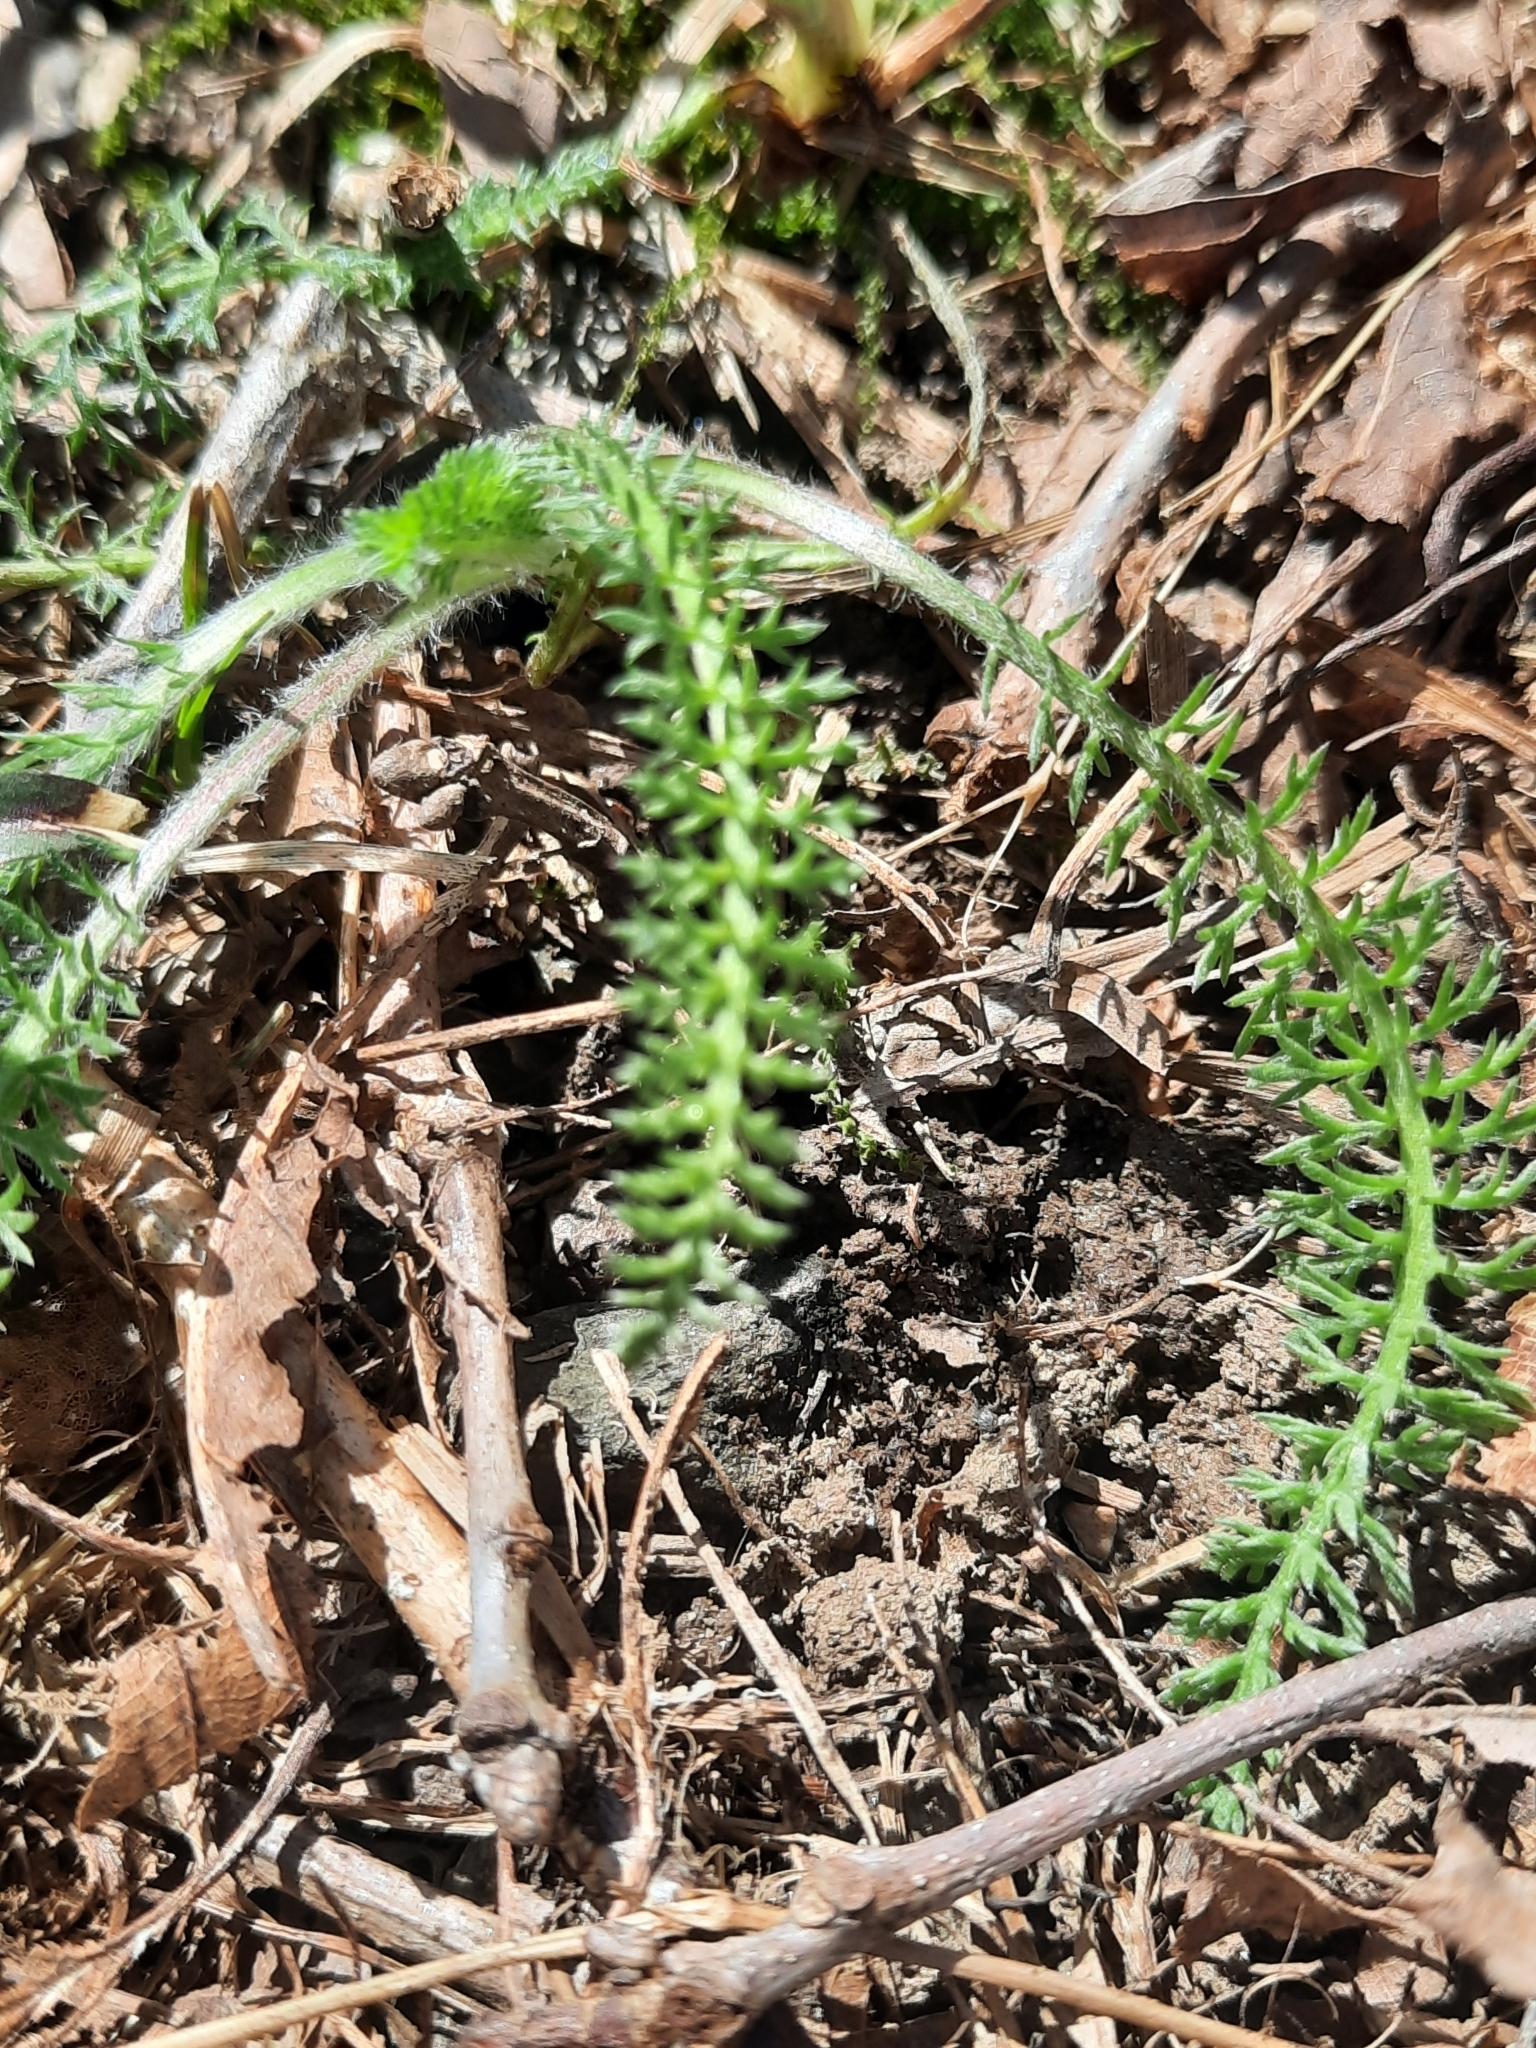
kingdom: Plantae
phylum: Tracheophyta
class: Magnoliopsida
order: Asterales
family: Asteraceae
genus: Achillea
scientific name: Achillea millefolium
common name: Yarrow
